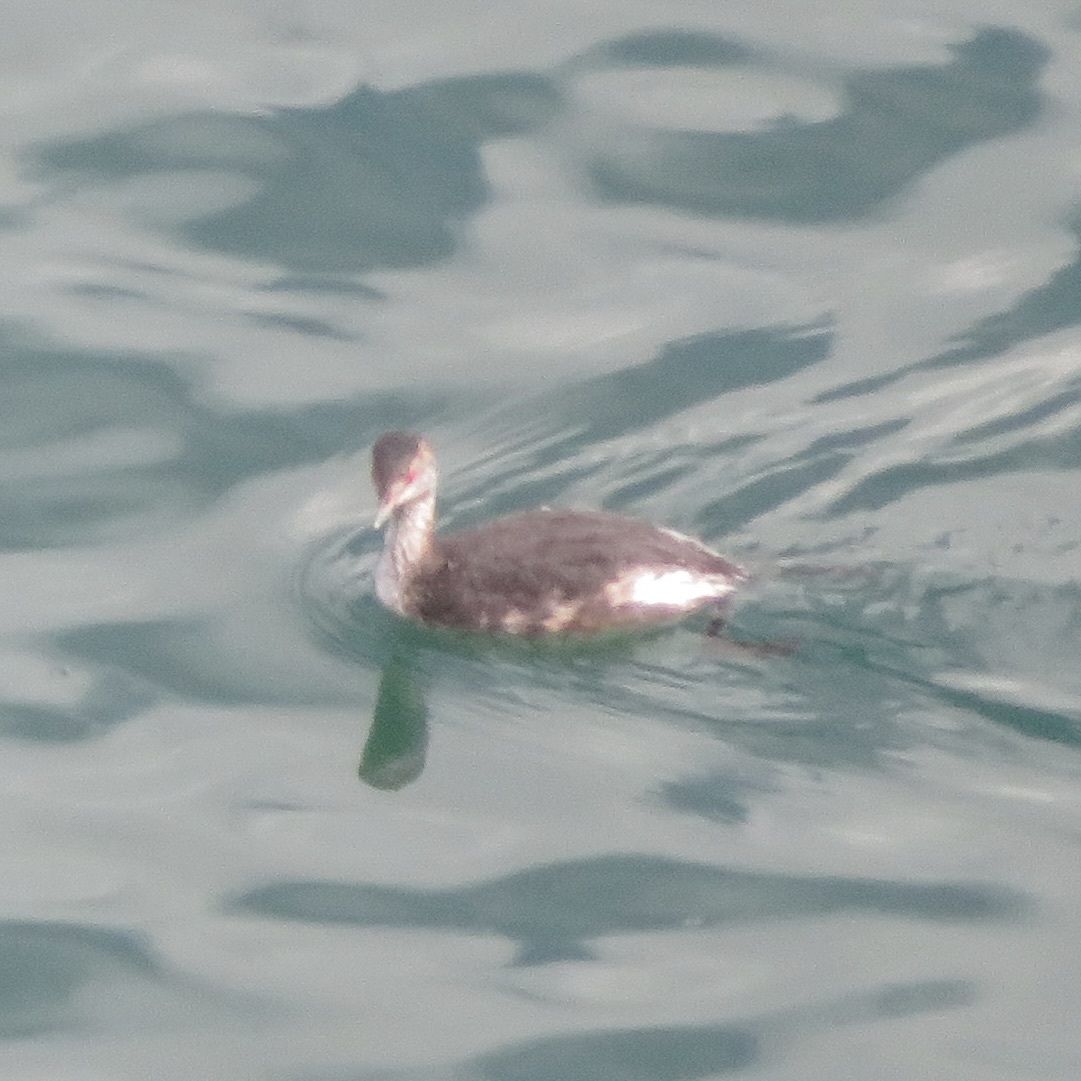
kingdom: Animalia
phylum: Chordata
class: Aves
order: Podicipediformes
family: Podicipedidae
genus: Podiceps
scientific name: Podiceps auritus
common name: Horned grebe
